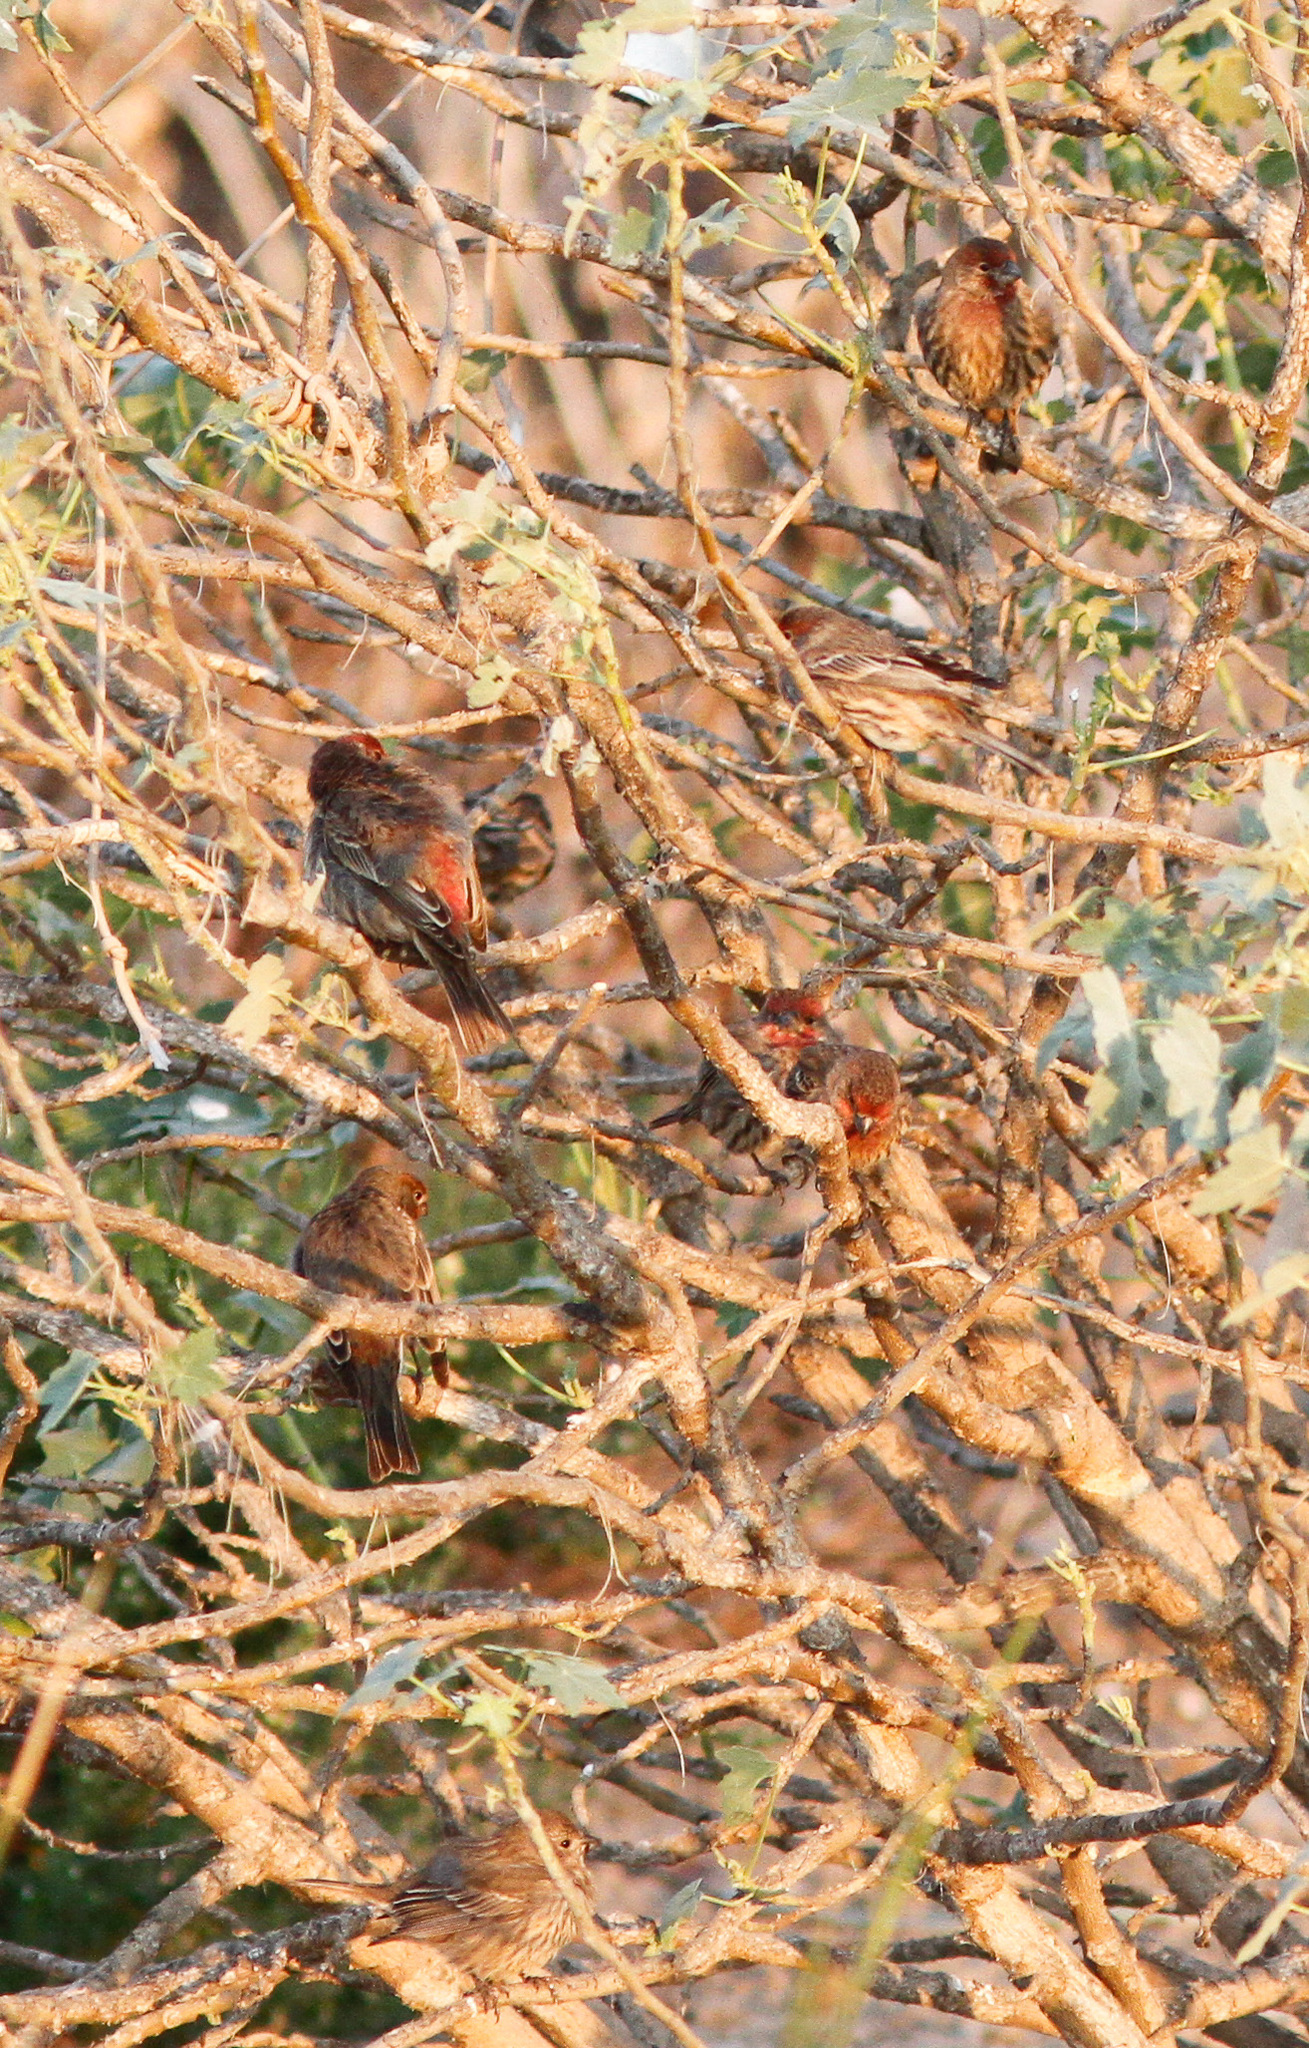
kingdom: Animalia
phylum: Chordata
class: Aves
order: Passeriformes
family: Fringillidae
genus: Haemorhous
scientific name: Haemorhous mexicanus
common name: House finch
